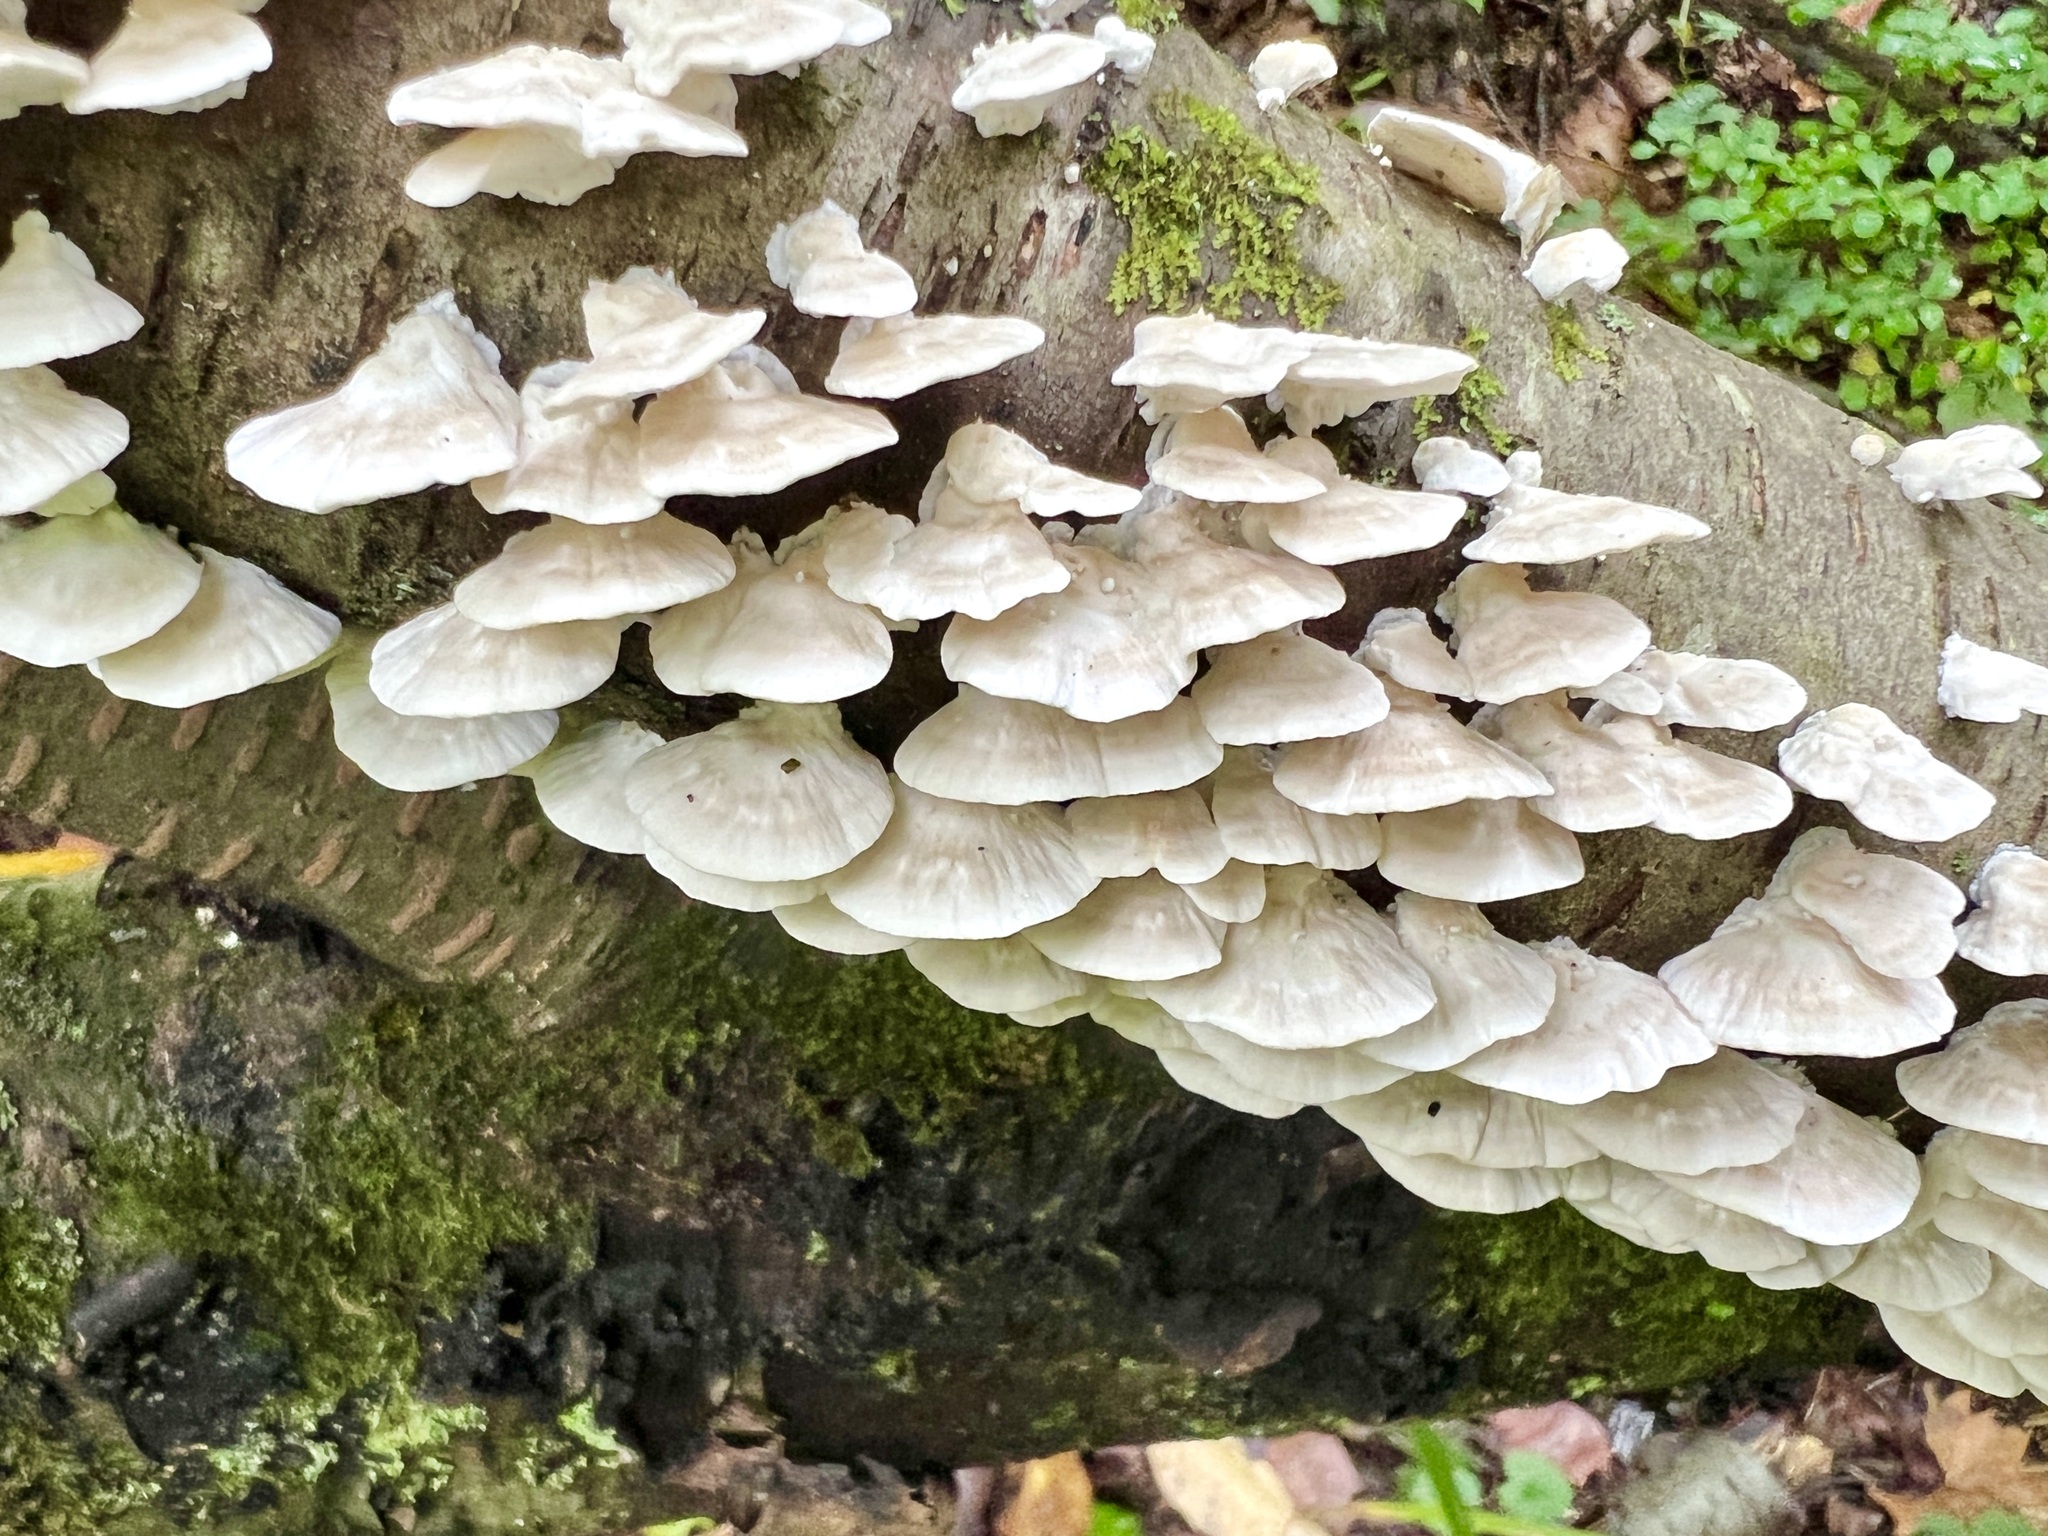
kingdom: Fungi
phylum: Basidiomycota
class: Agaricomycetes
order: Polyporales
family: Polyporaceae
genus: Trametes
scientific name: Trametes pubescens
